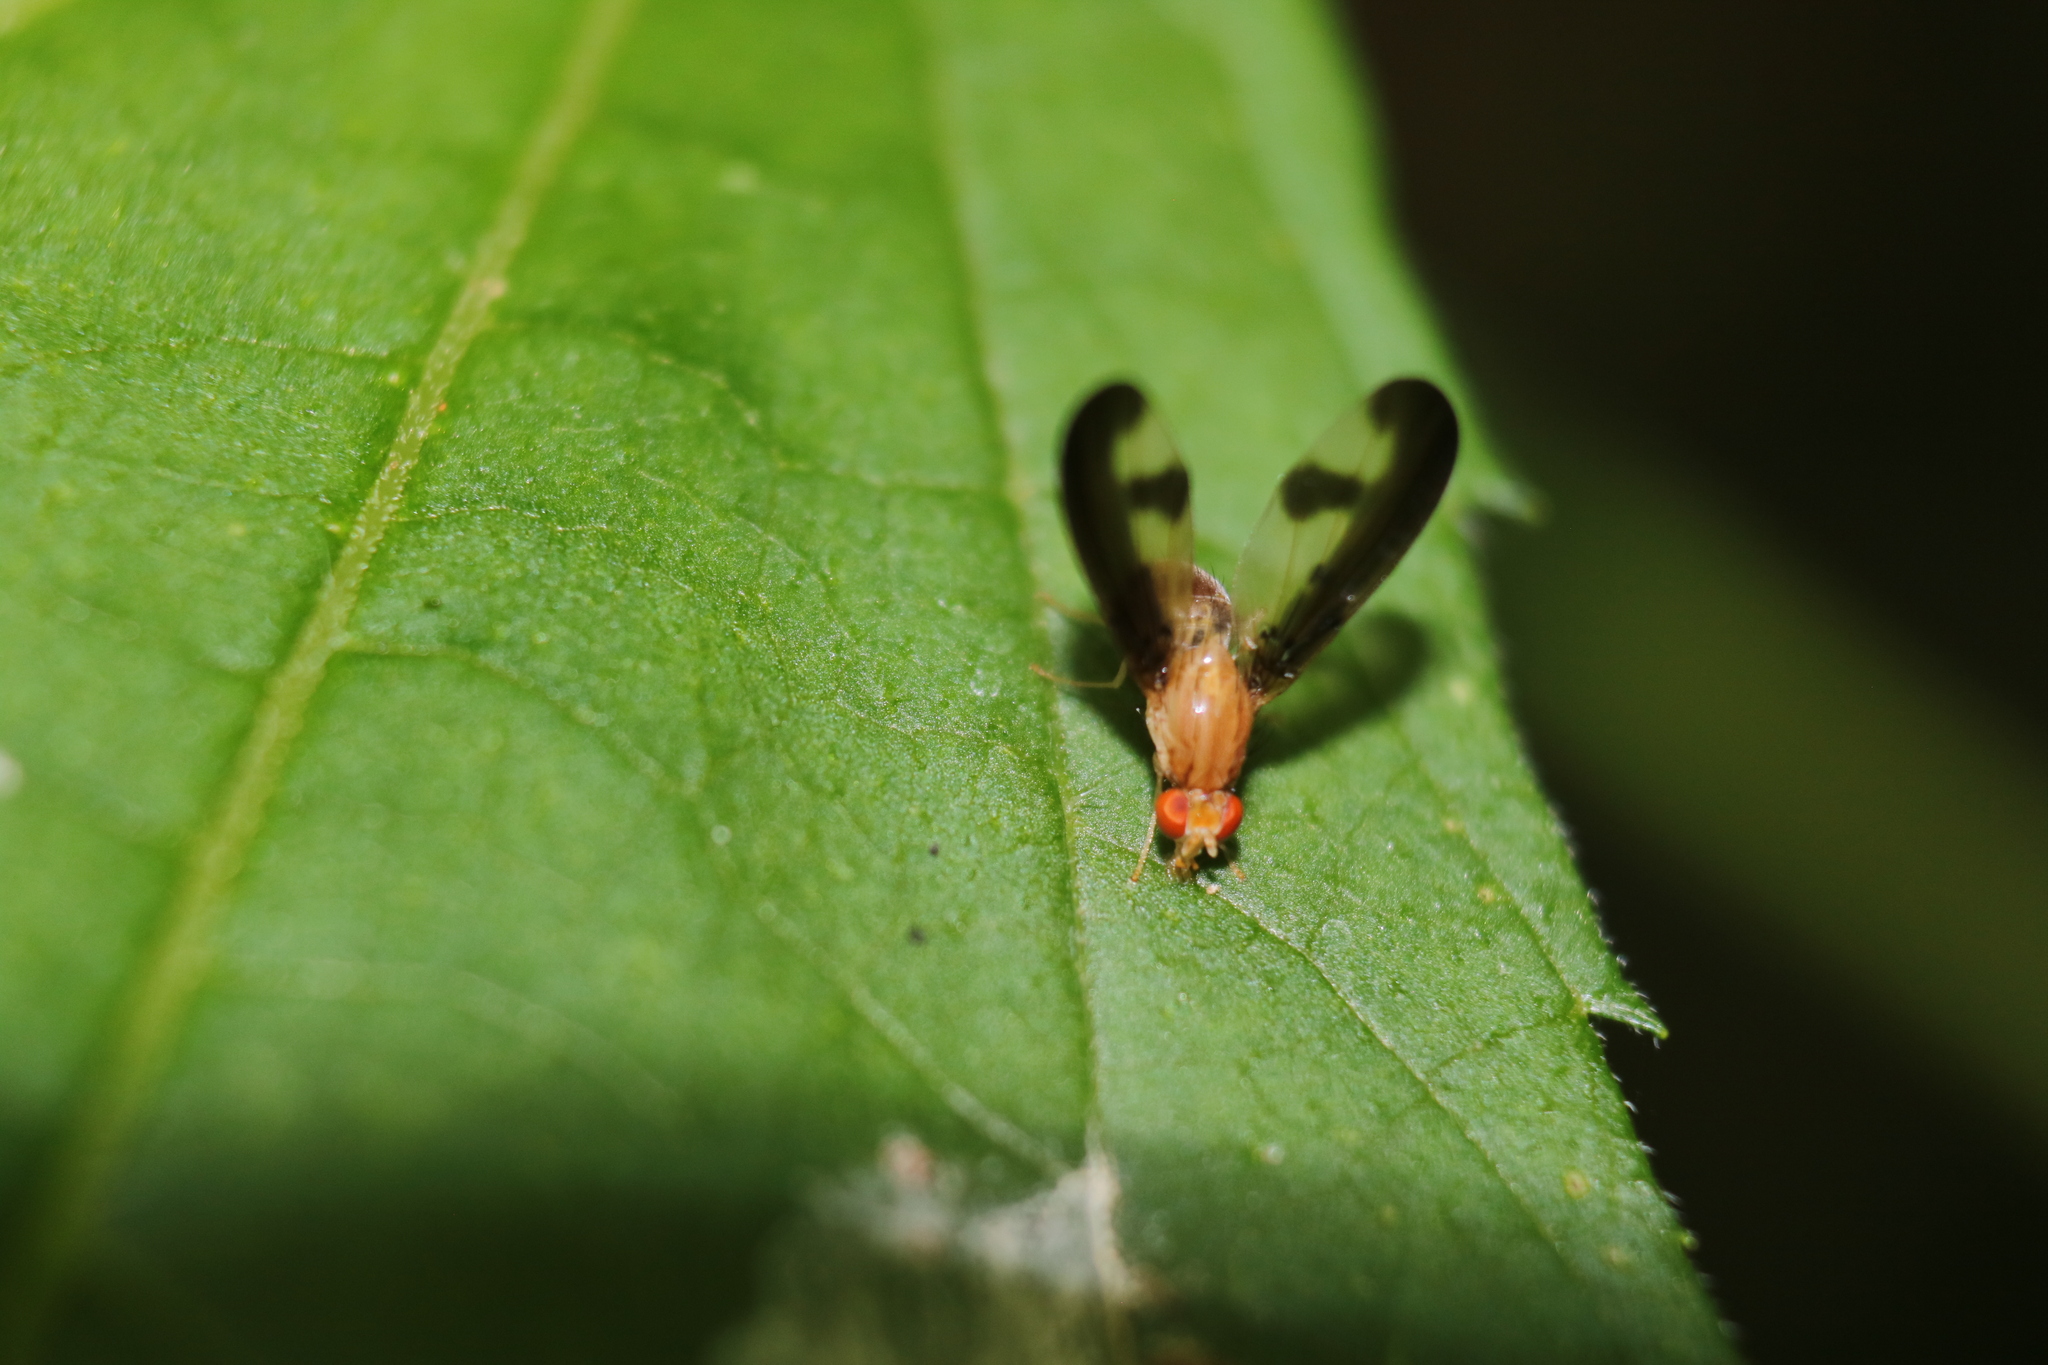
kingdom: Animalia
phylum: Arthropoda
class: Insecta
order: Diptera
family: Pallopteridae
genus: Toxonevra
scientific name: Toxonevra superba
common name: Antlered flutter fly
